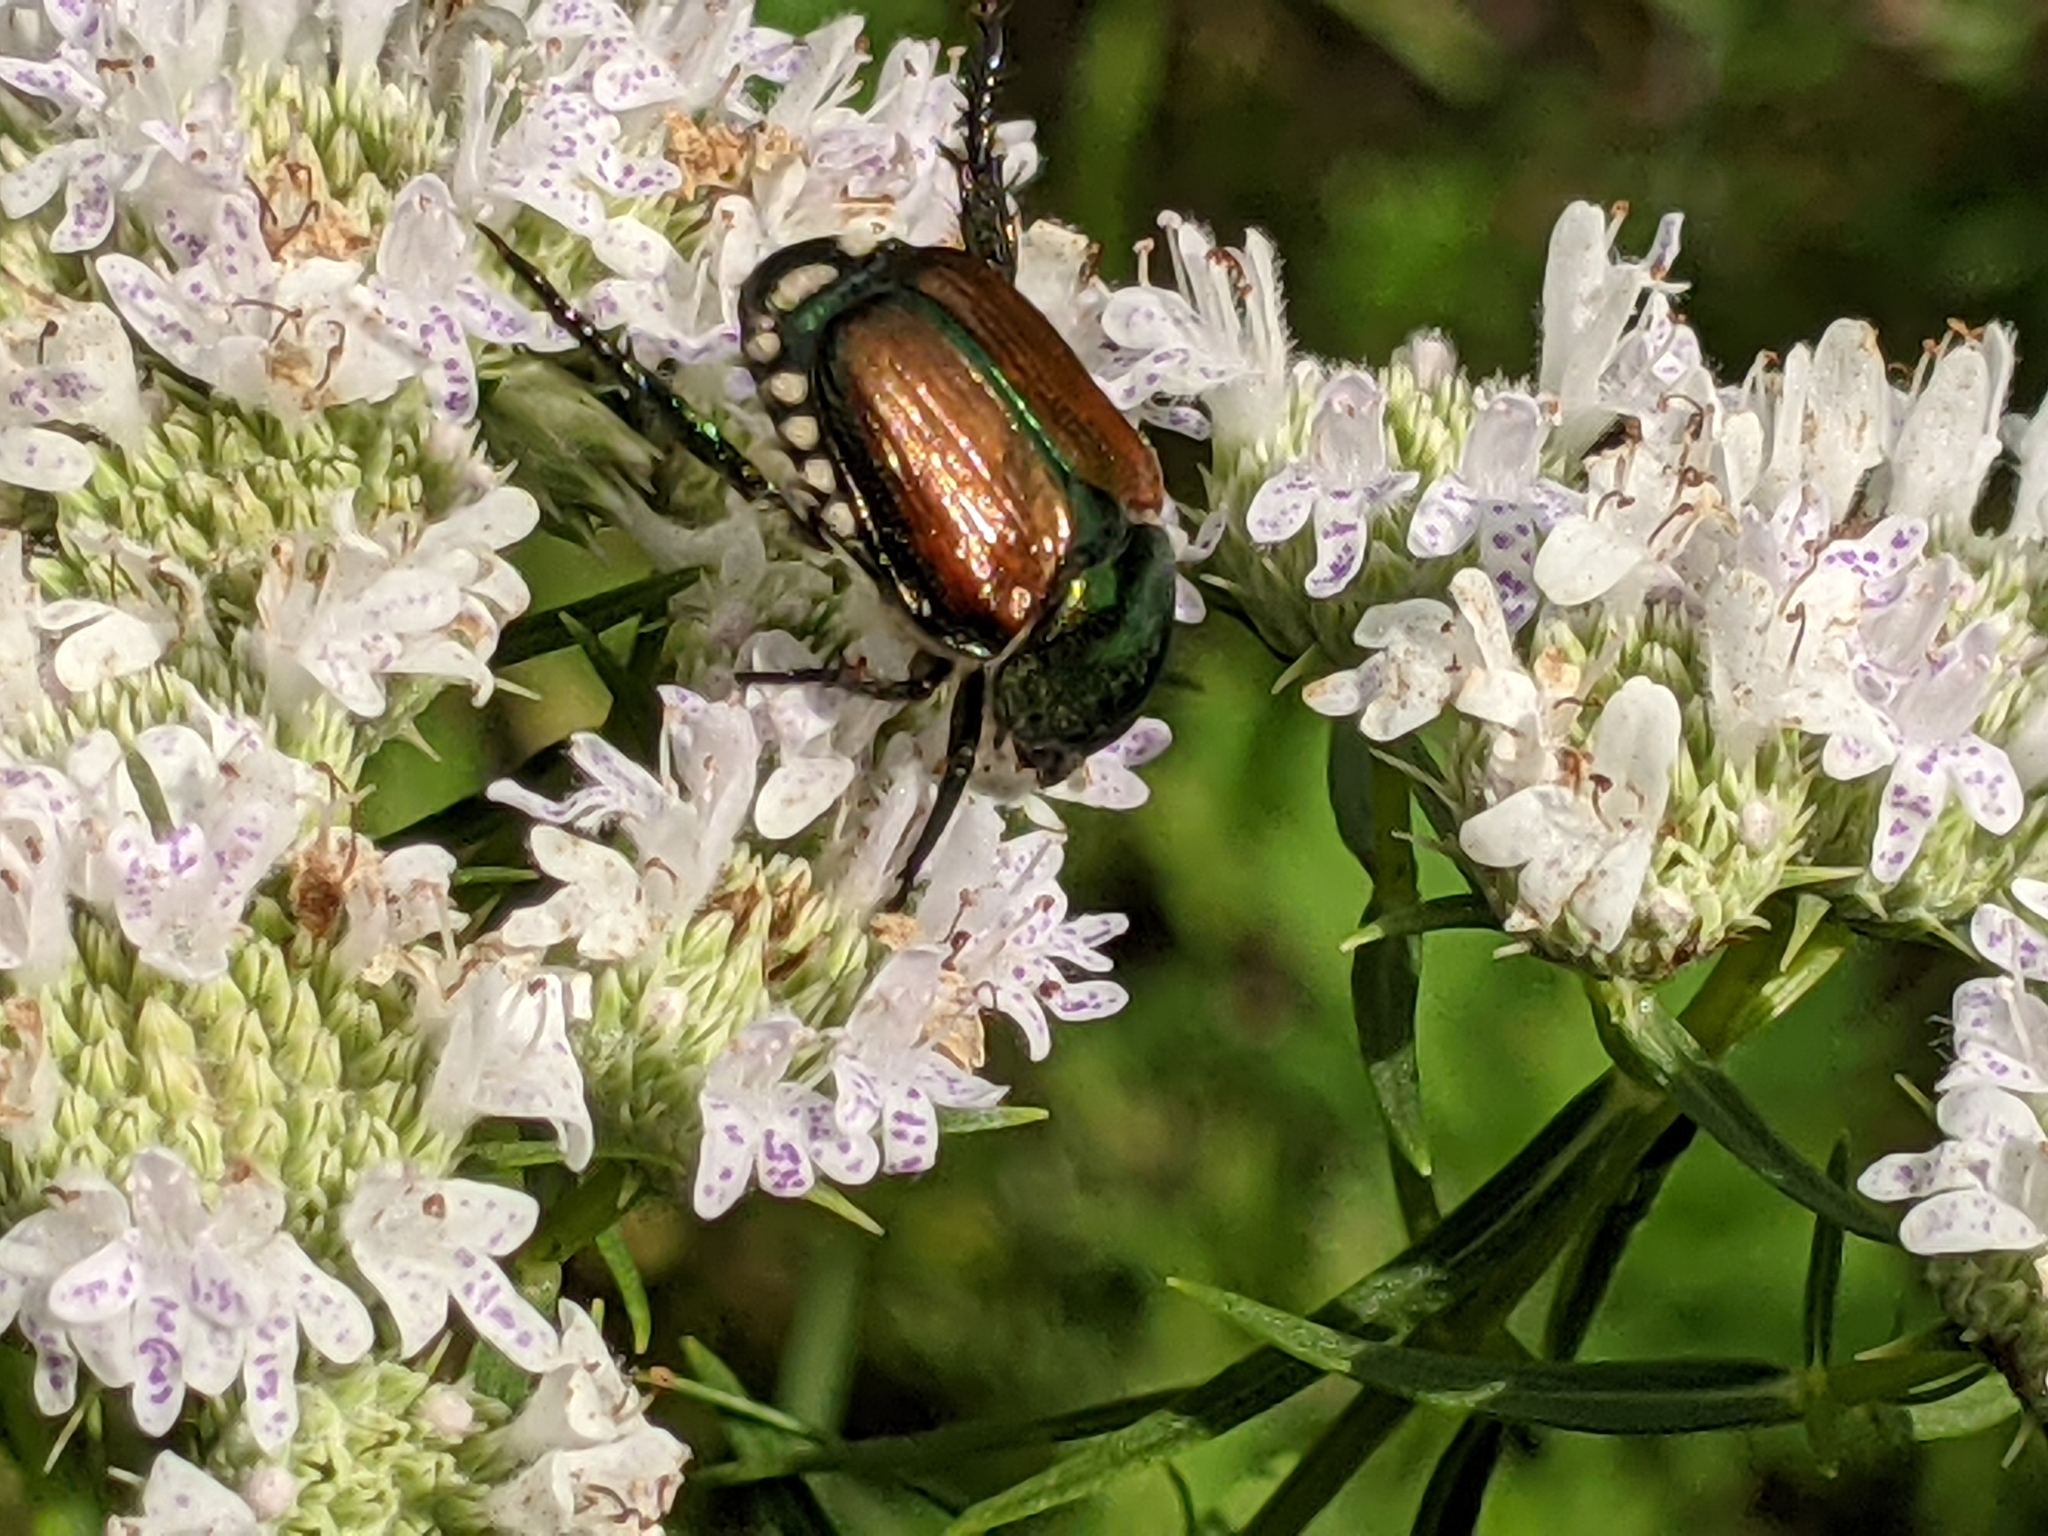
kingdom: Animalia
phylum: Arthropoda
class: Insecta
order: Coleoptera
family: Scarabaeidae
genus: Popillia
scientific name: Popillia japonica
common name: Japanese beetle
